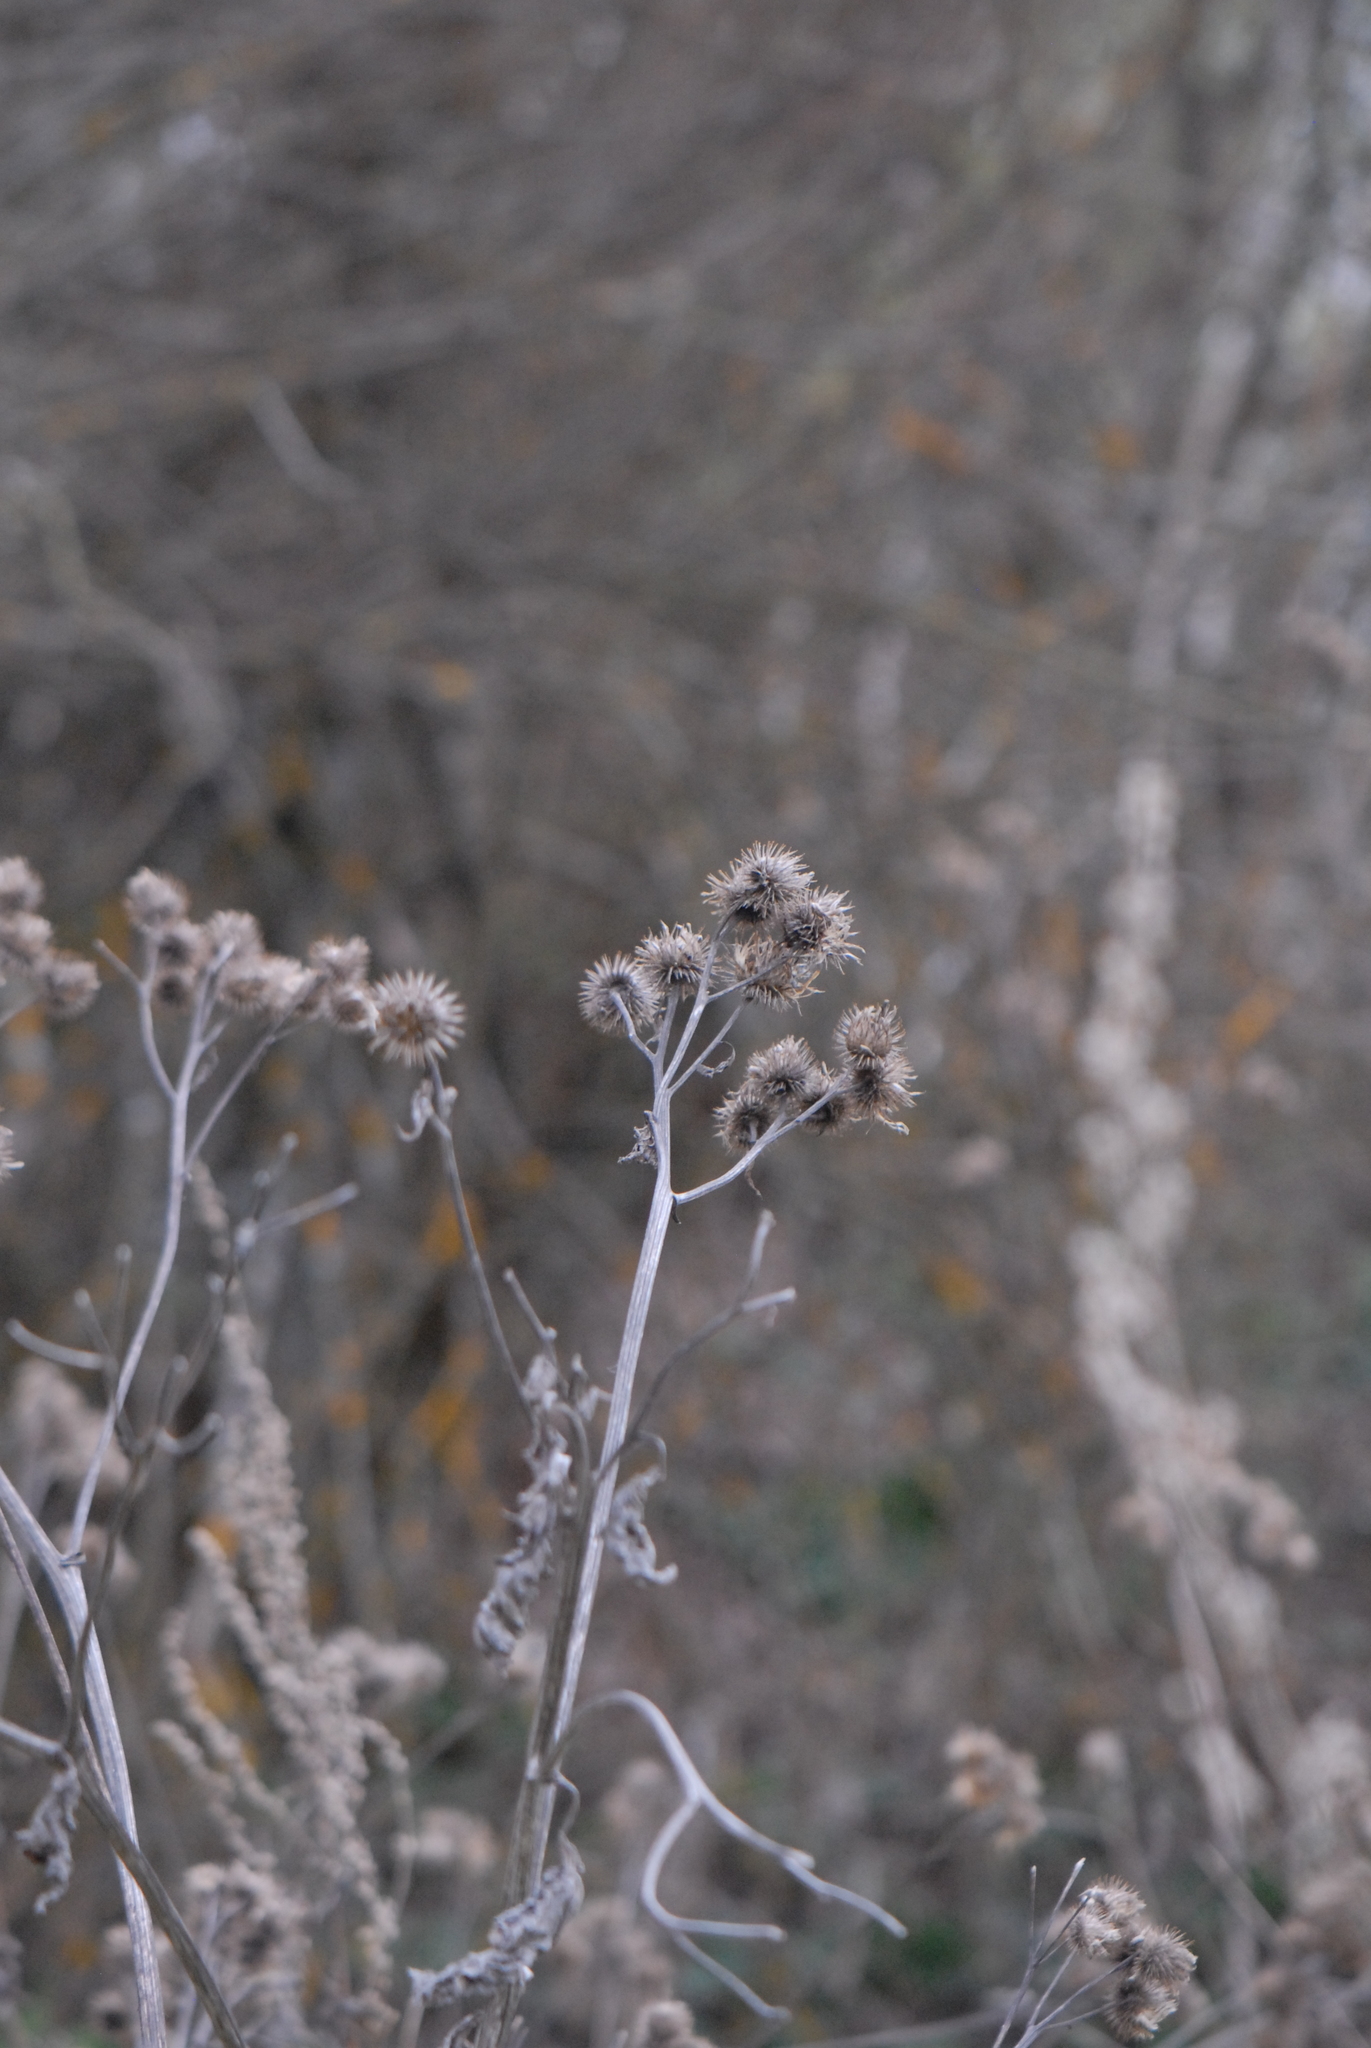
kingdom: Plantae
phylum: Tracheophyta
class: Magnoliopsida
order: Asterales
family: Asteraceae
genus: Arctium
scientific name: Arctium tomentosum
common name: Woolly burdock
